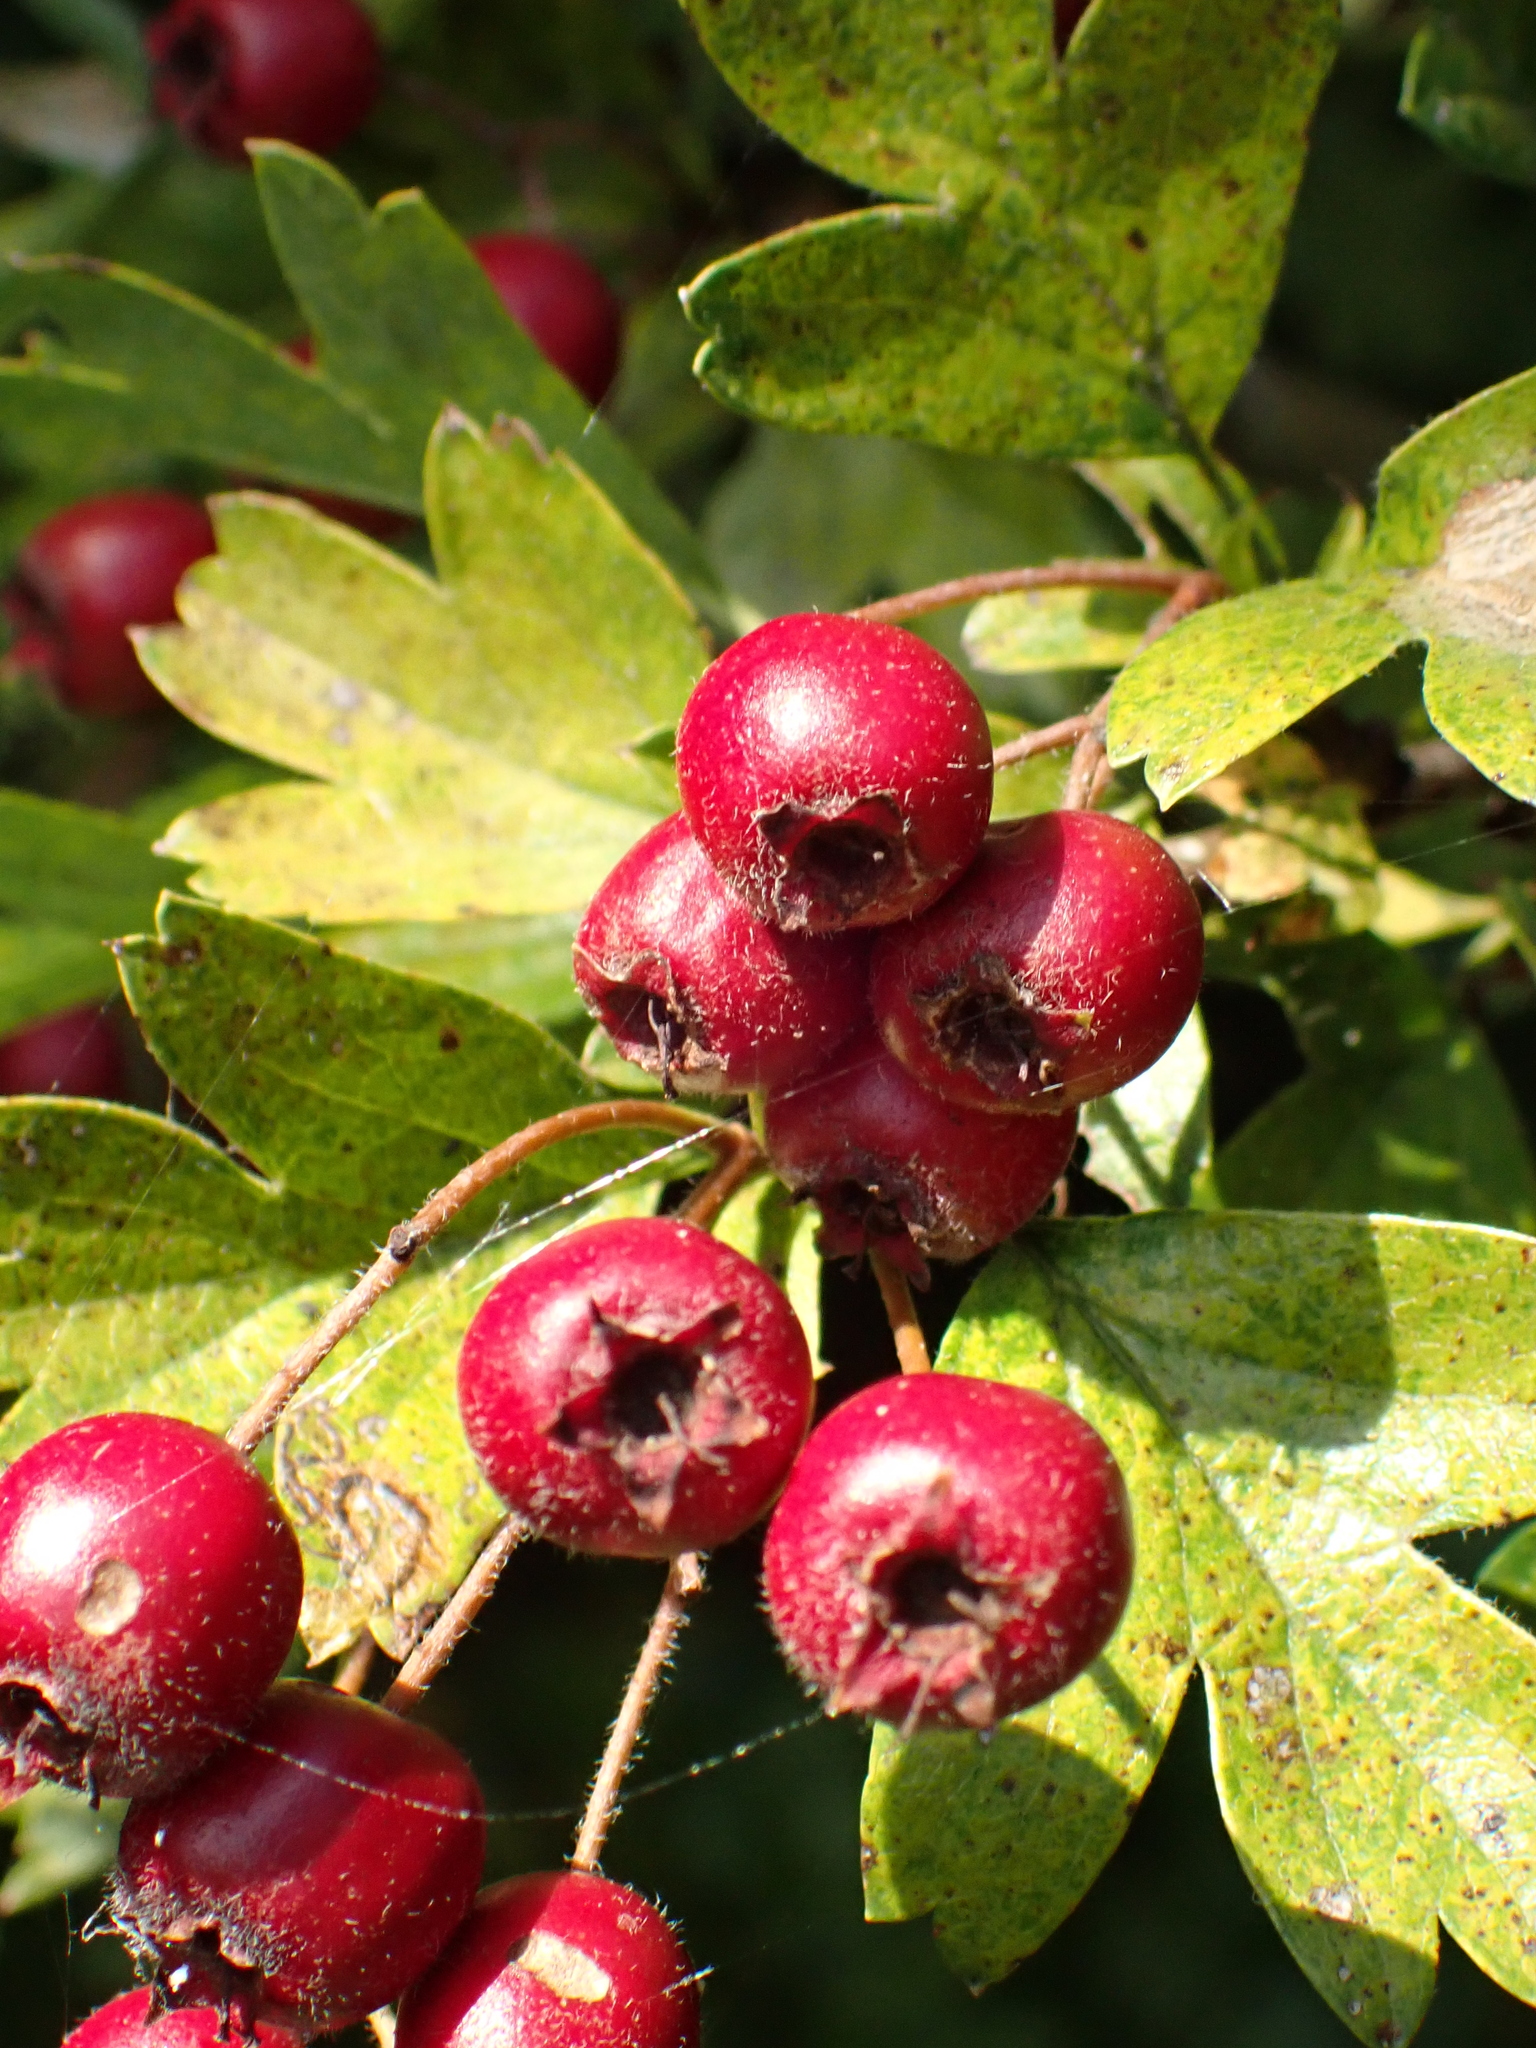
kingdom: Plantae
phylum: Tracheophyta
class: Magnoliopsida
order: Rosales
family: Rosaceae
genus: Crataegus
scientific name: Crataegus monogyna
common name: Hawthorn
